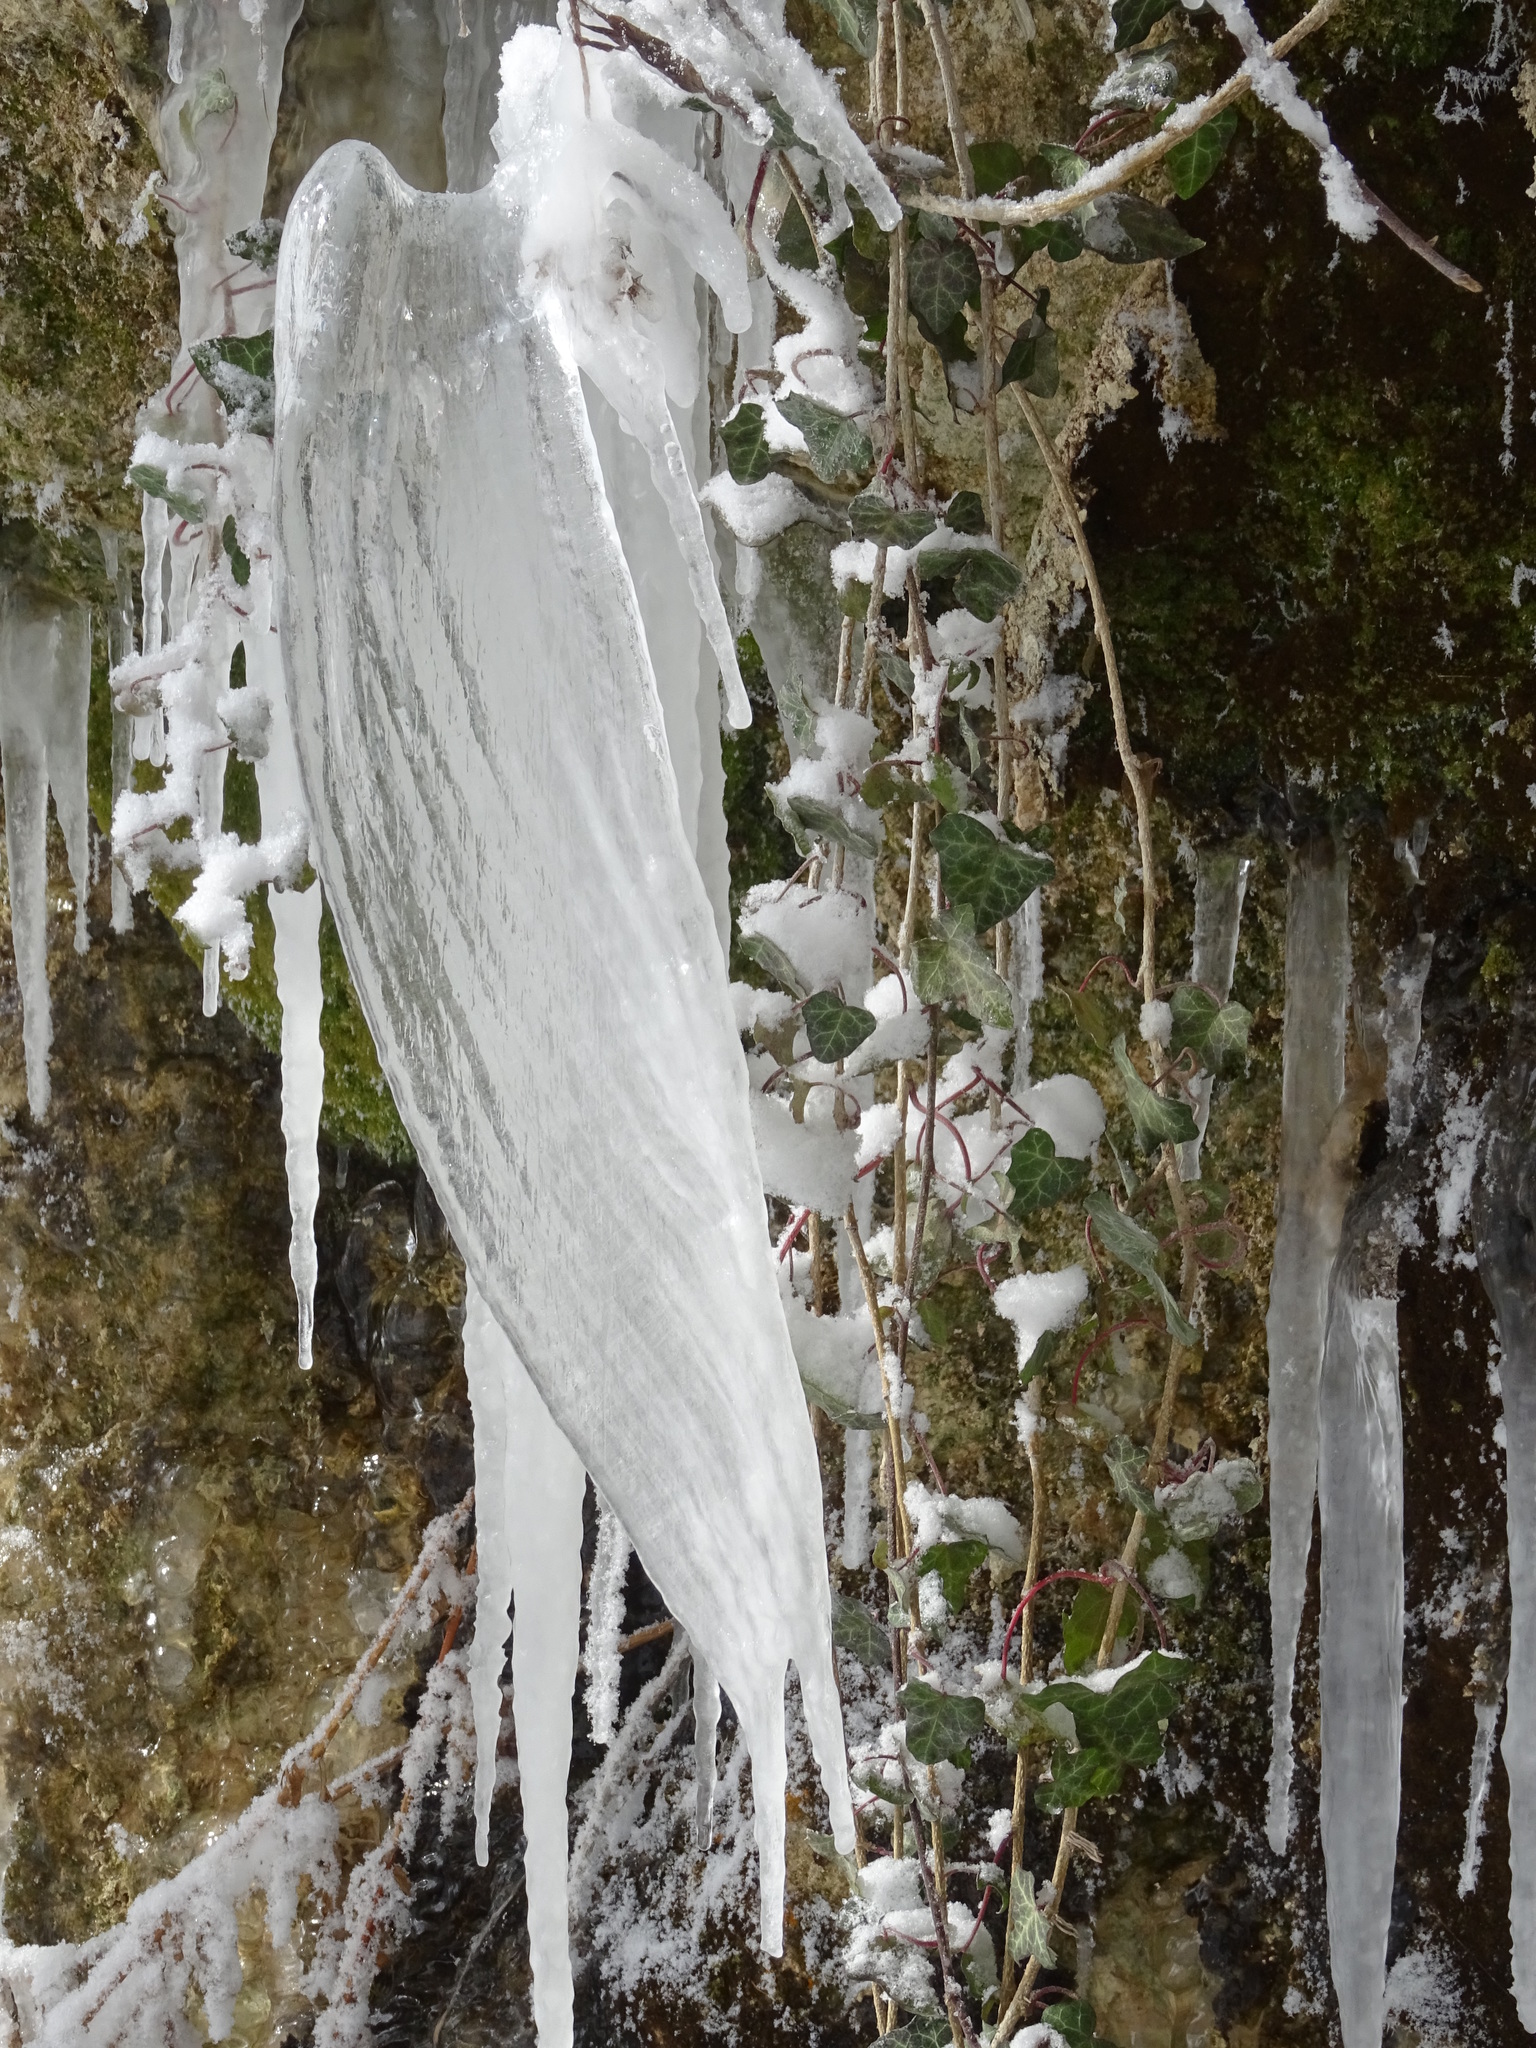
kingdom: Plantae
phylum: Tracheophyta
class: Magnoliopsida
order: Apiales
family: Araliaceae
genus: Hedera
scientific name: Hedera helix
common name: Ivy
